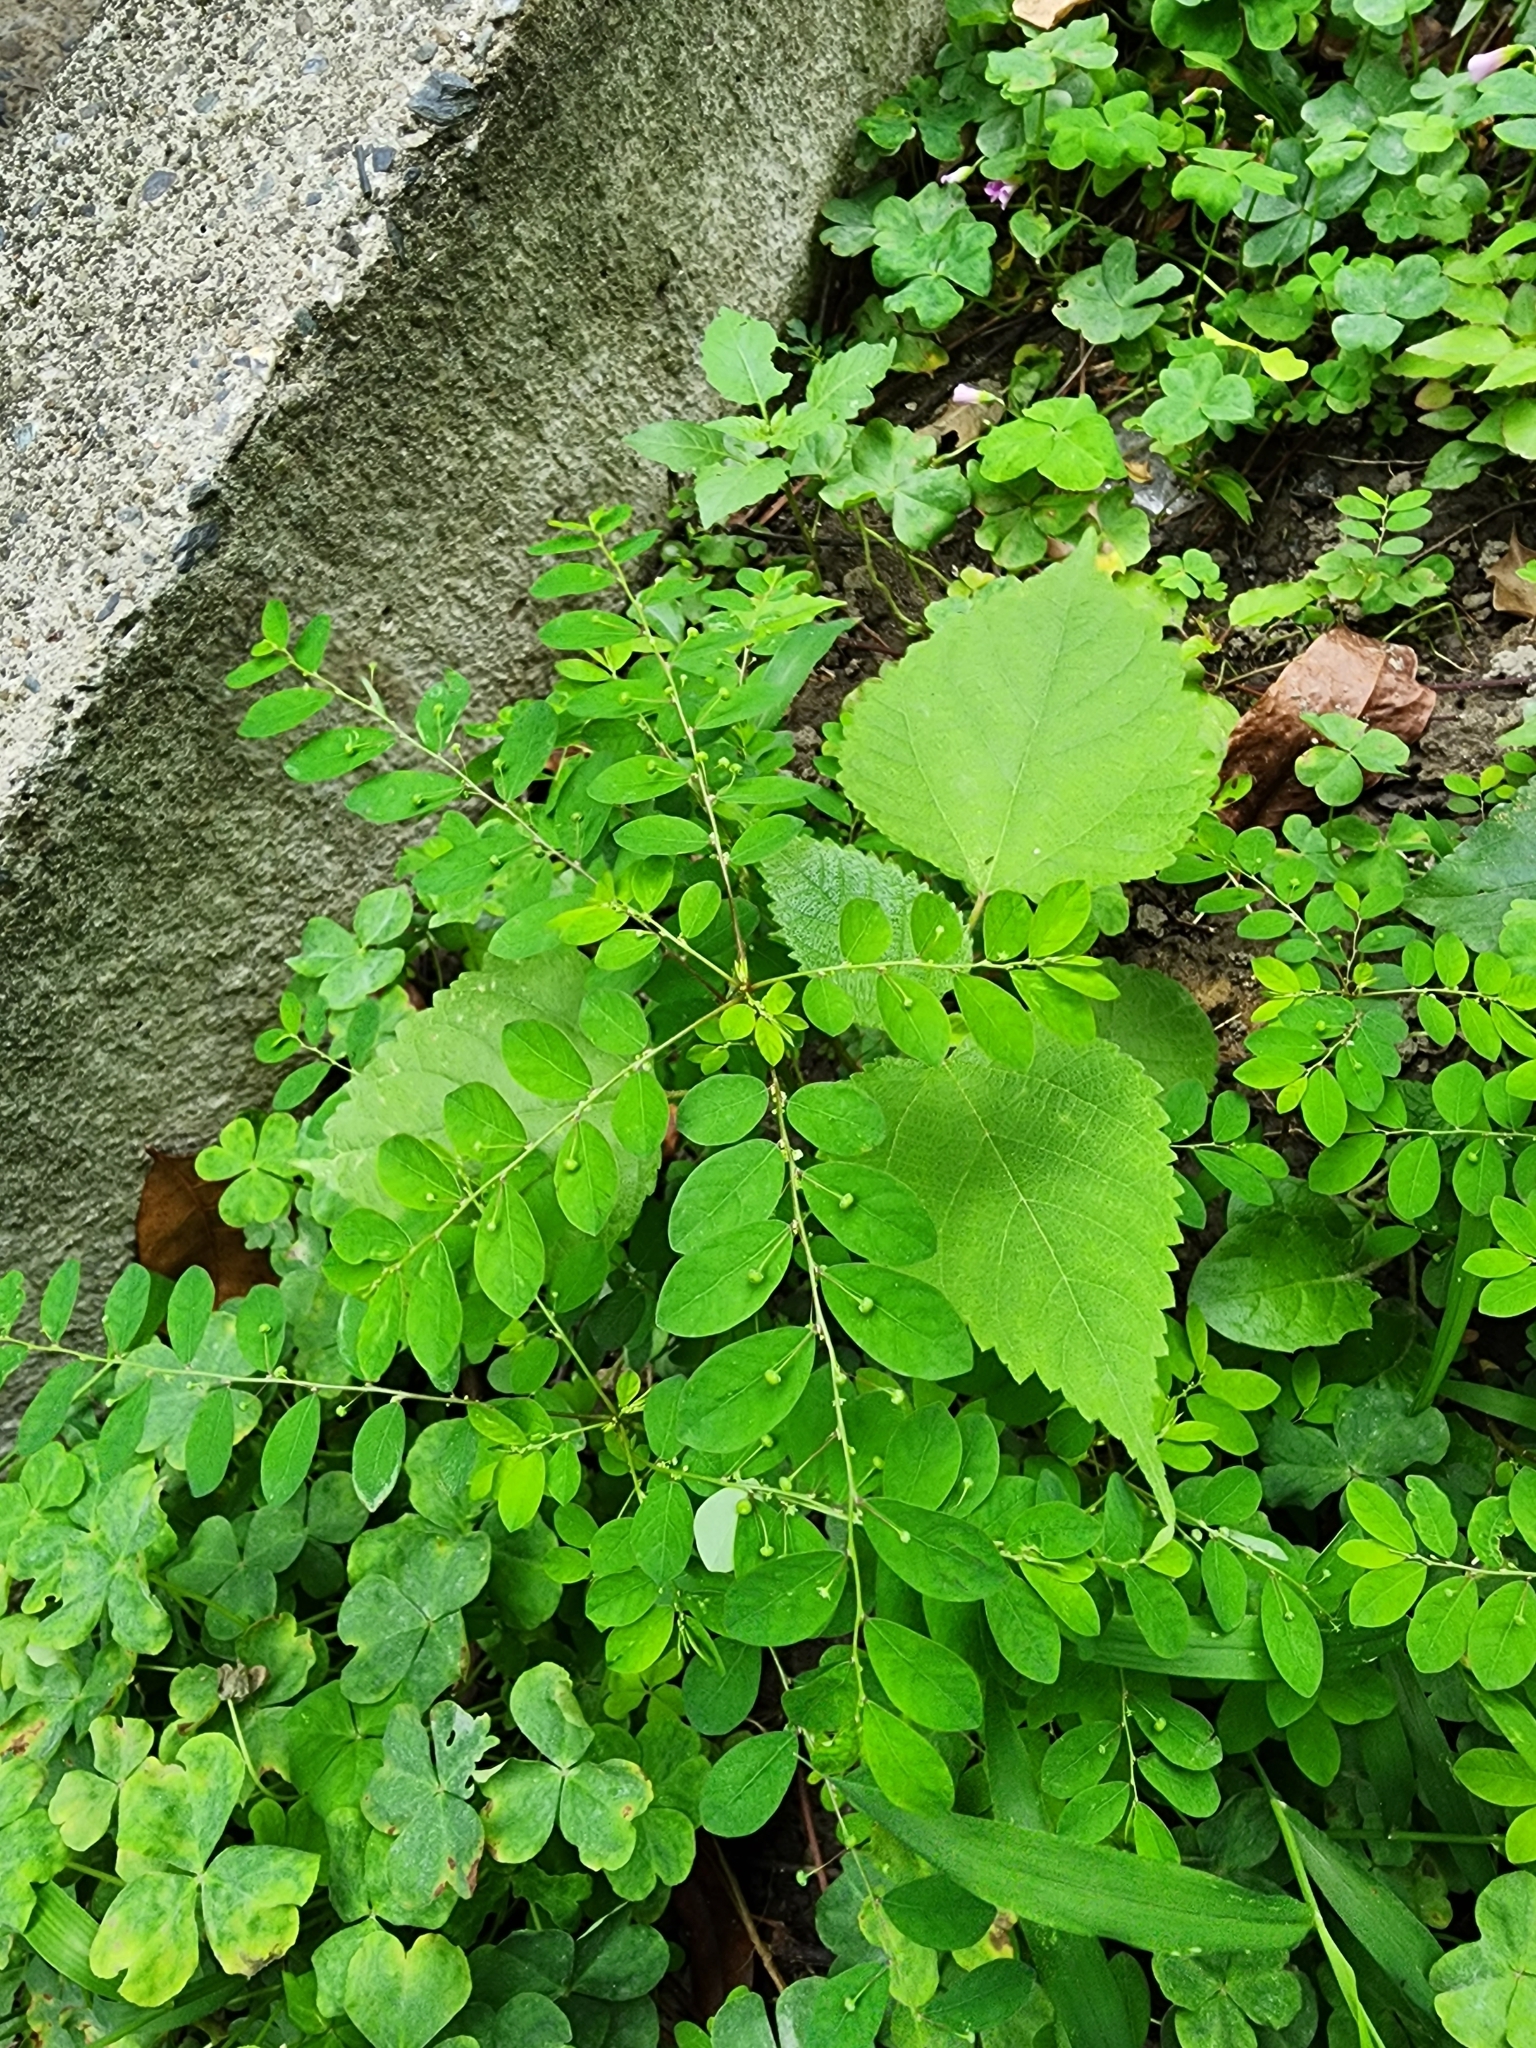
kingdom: Plantae
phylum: Tracheophyta
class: Magnoliopsida
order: Malpighiales
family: Phyllanthaceae
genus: Phyllanthus
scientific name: Phyllanthus tenellus
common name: Mascarene island leaf-flower
